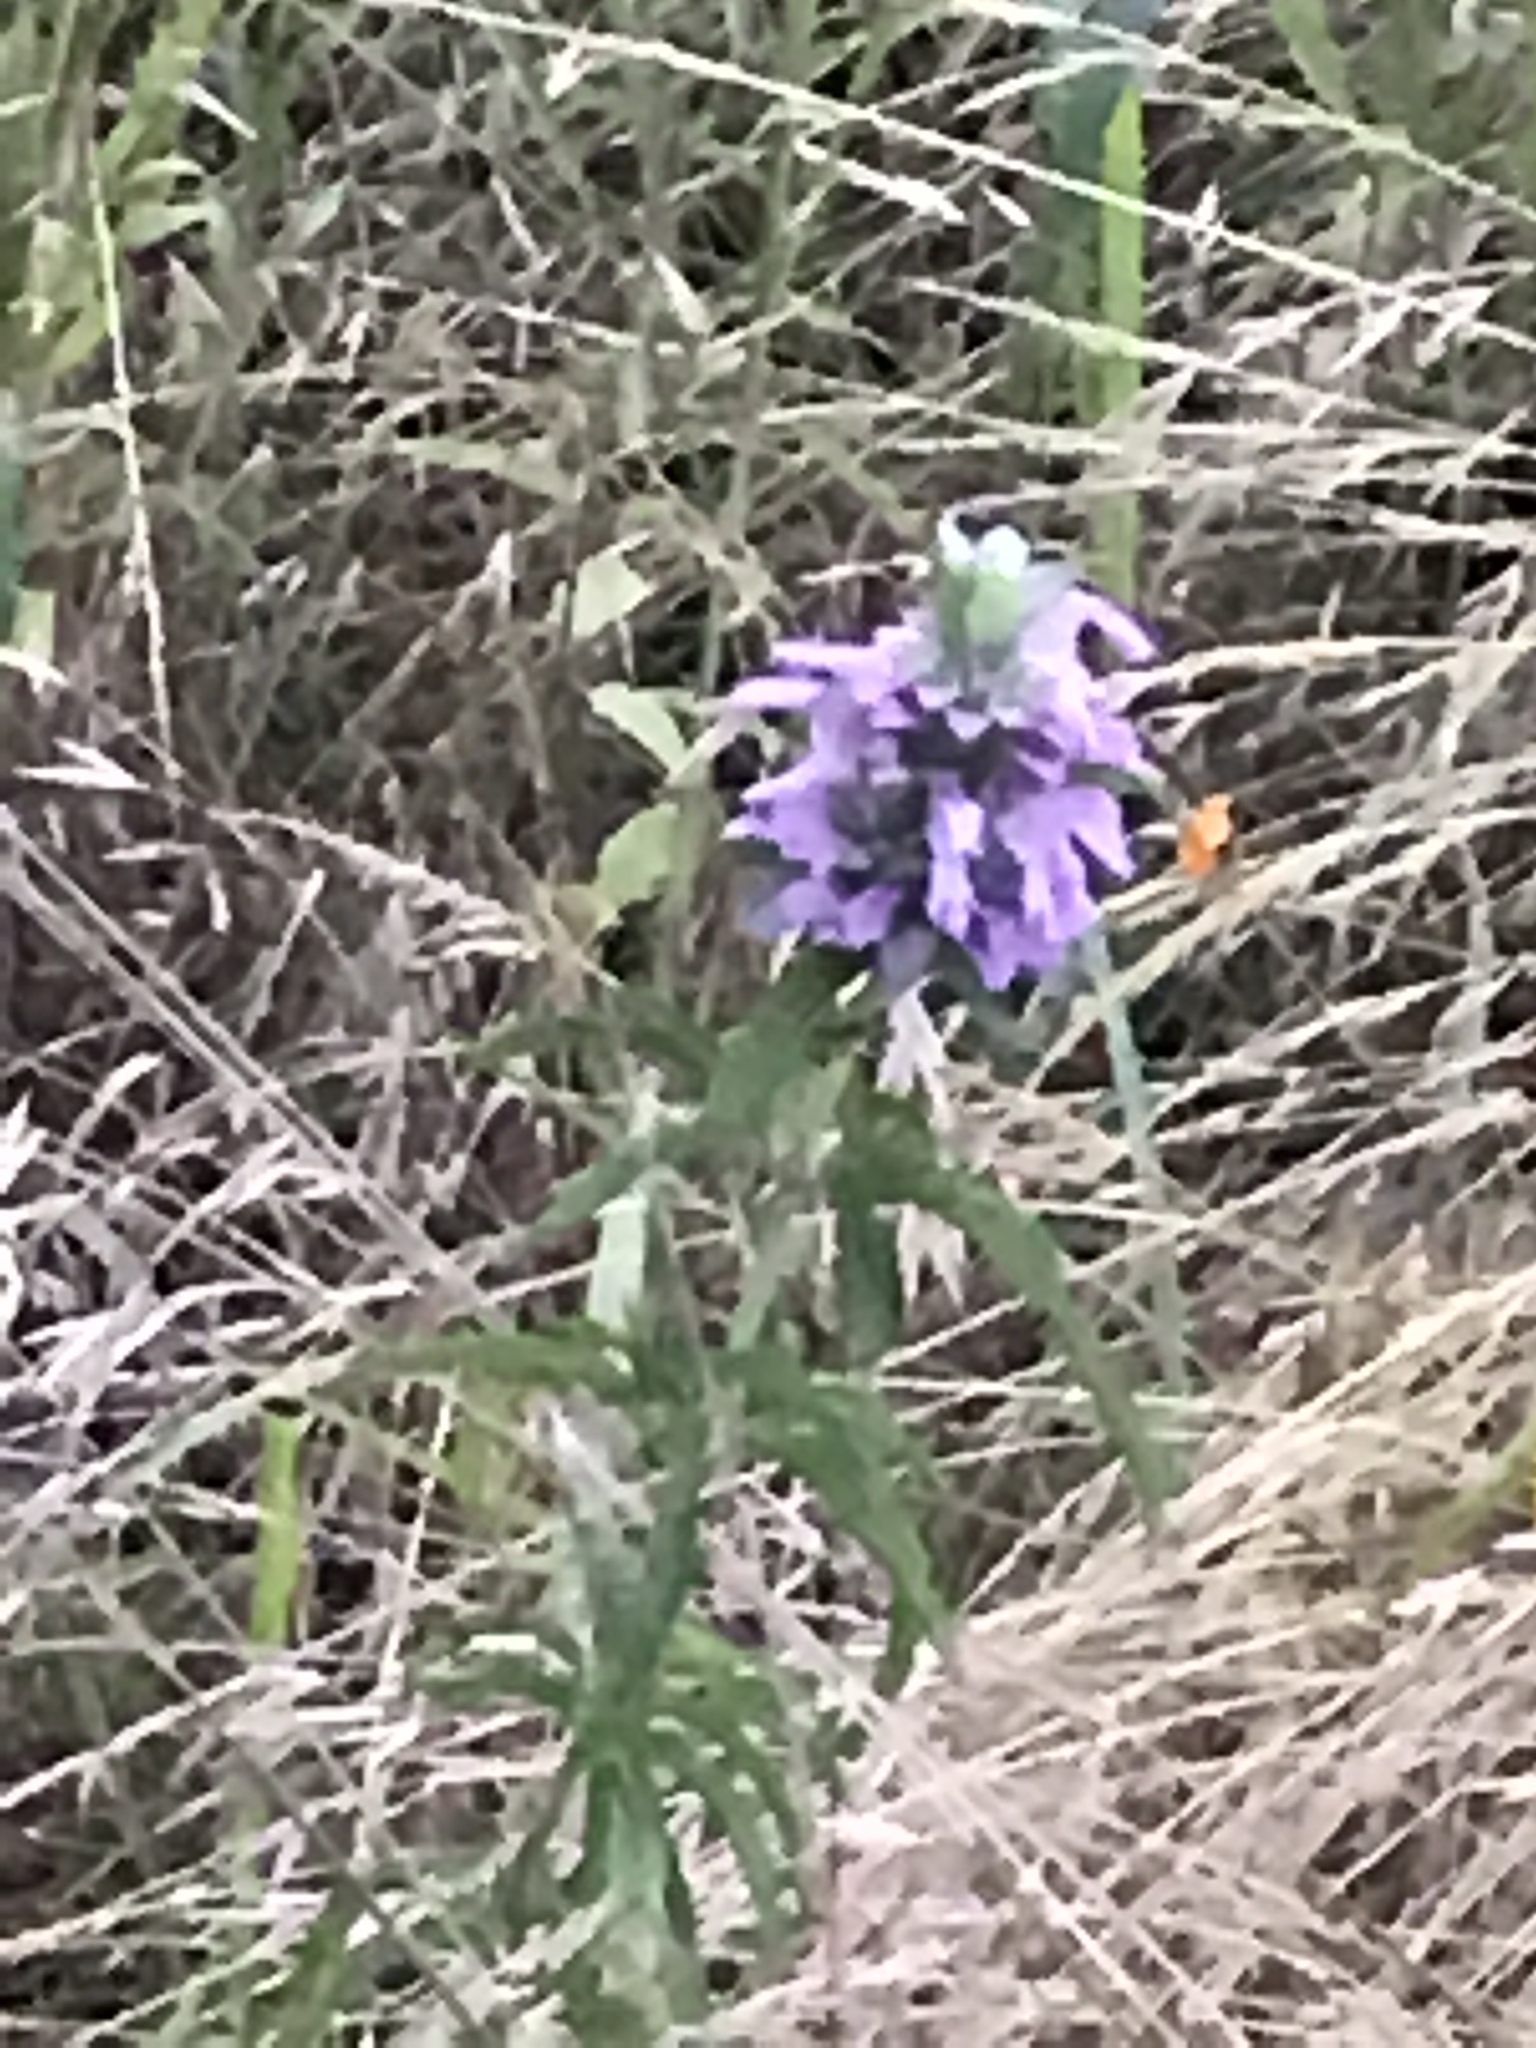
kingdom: Plantae
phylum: Tracheophyta
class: Magnoliopsida
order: Lamiales
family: Lamiaceae
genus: Monarda
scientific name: Monarda citriodora
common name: Lemon beebalm
